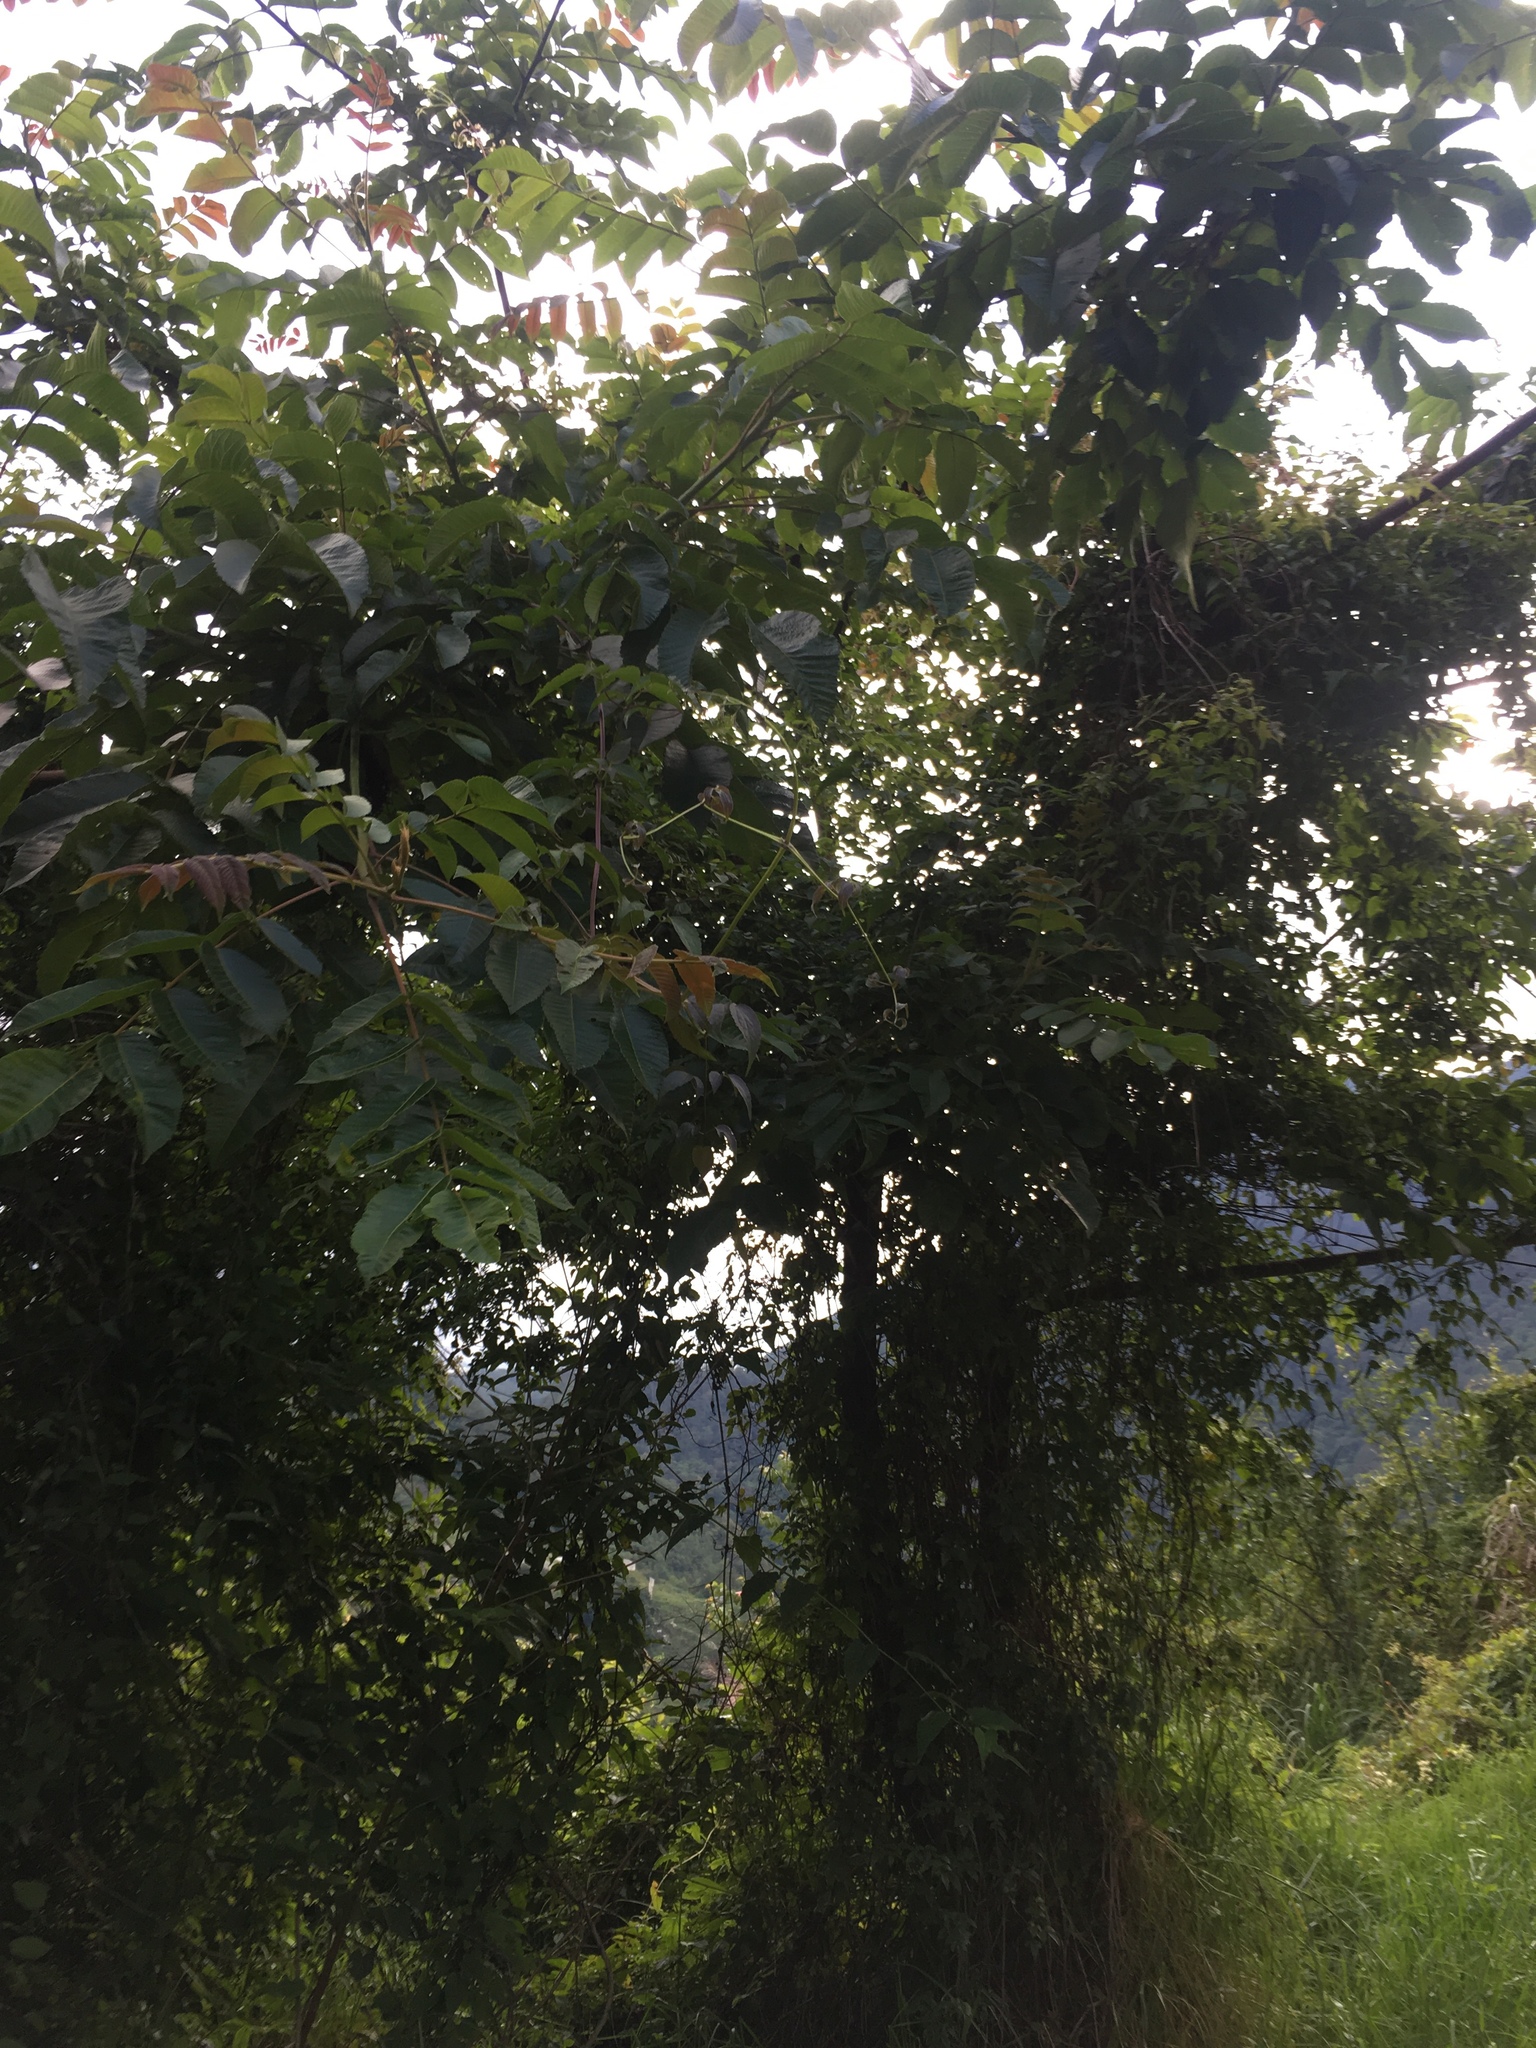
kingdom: Plantae
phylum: Tracheophyta
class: Magnoliopsida
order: Sapindales
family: Anacardiaceae
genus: Rhus
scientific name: Rhus chinensis
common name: Chinese gall
